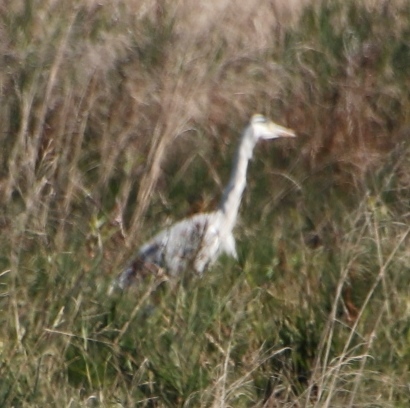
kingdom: Animalia
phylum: Chordata
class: Aves
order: Pelecaniformes
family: Ardeidae
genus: Ardea
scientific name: Ardea cinerea
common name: Grey heron
